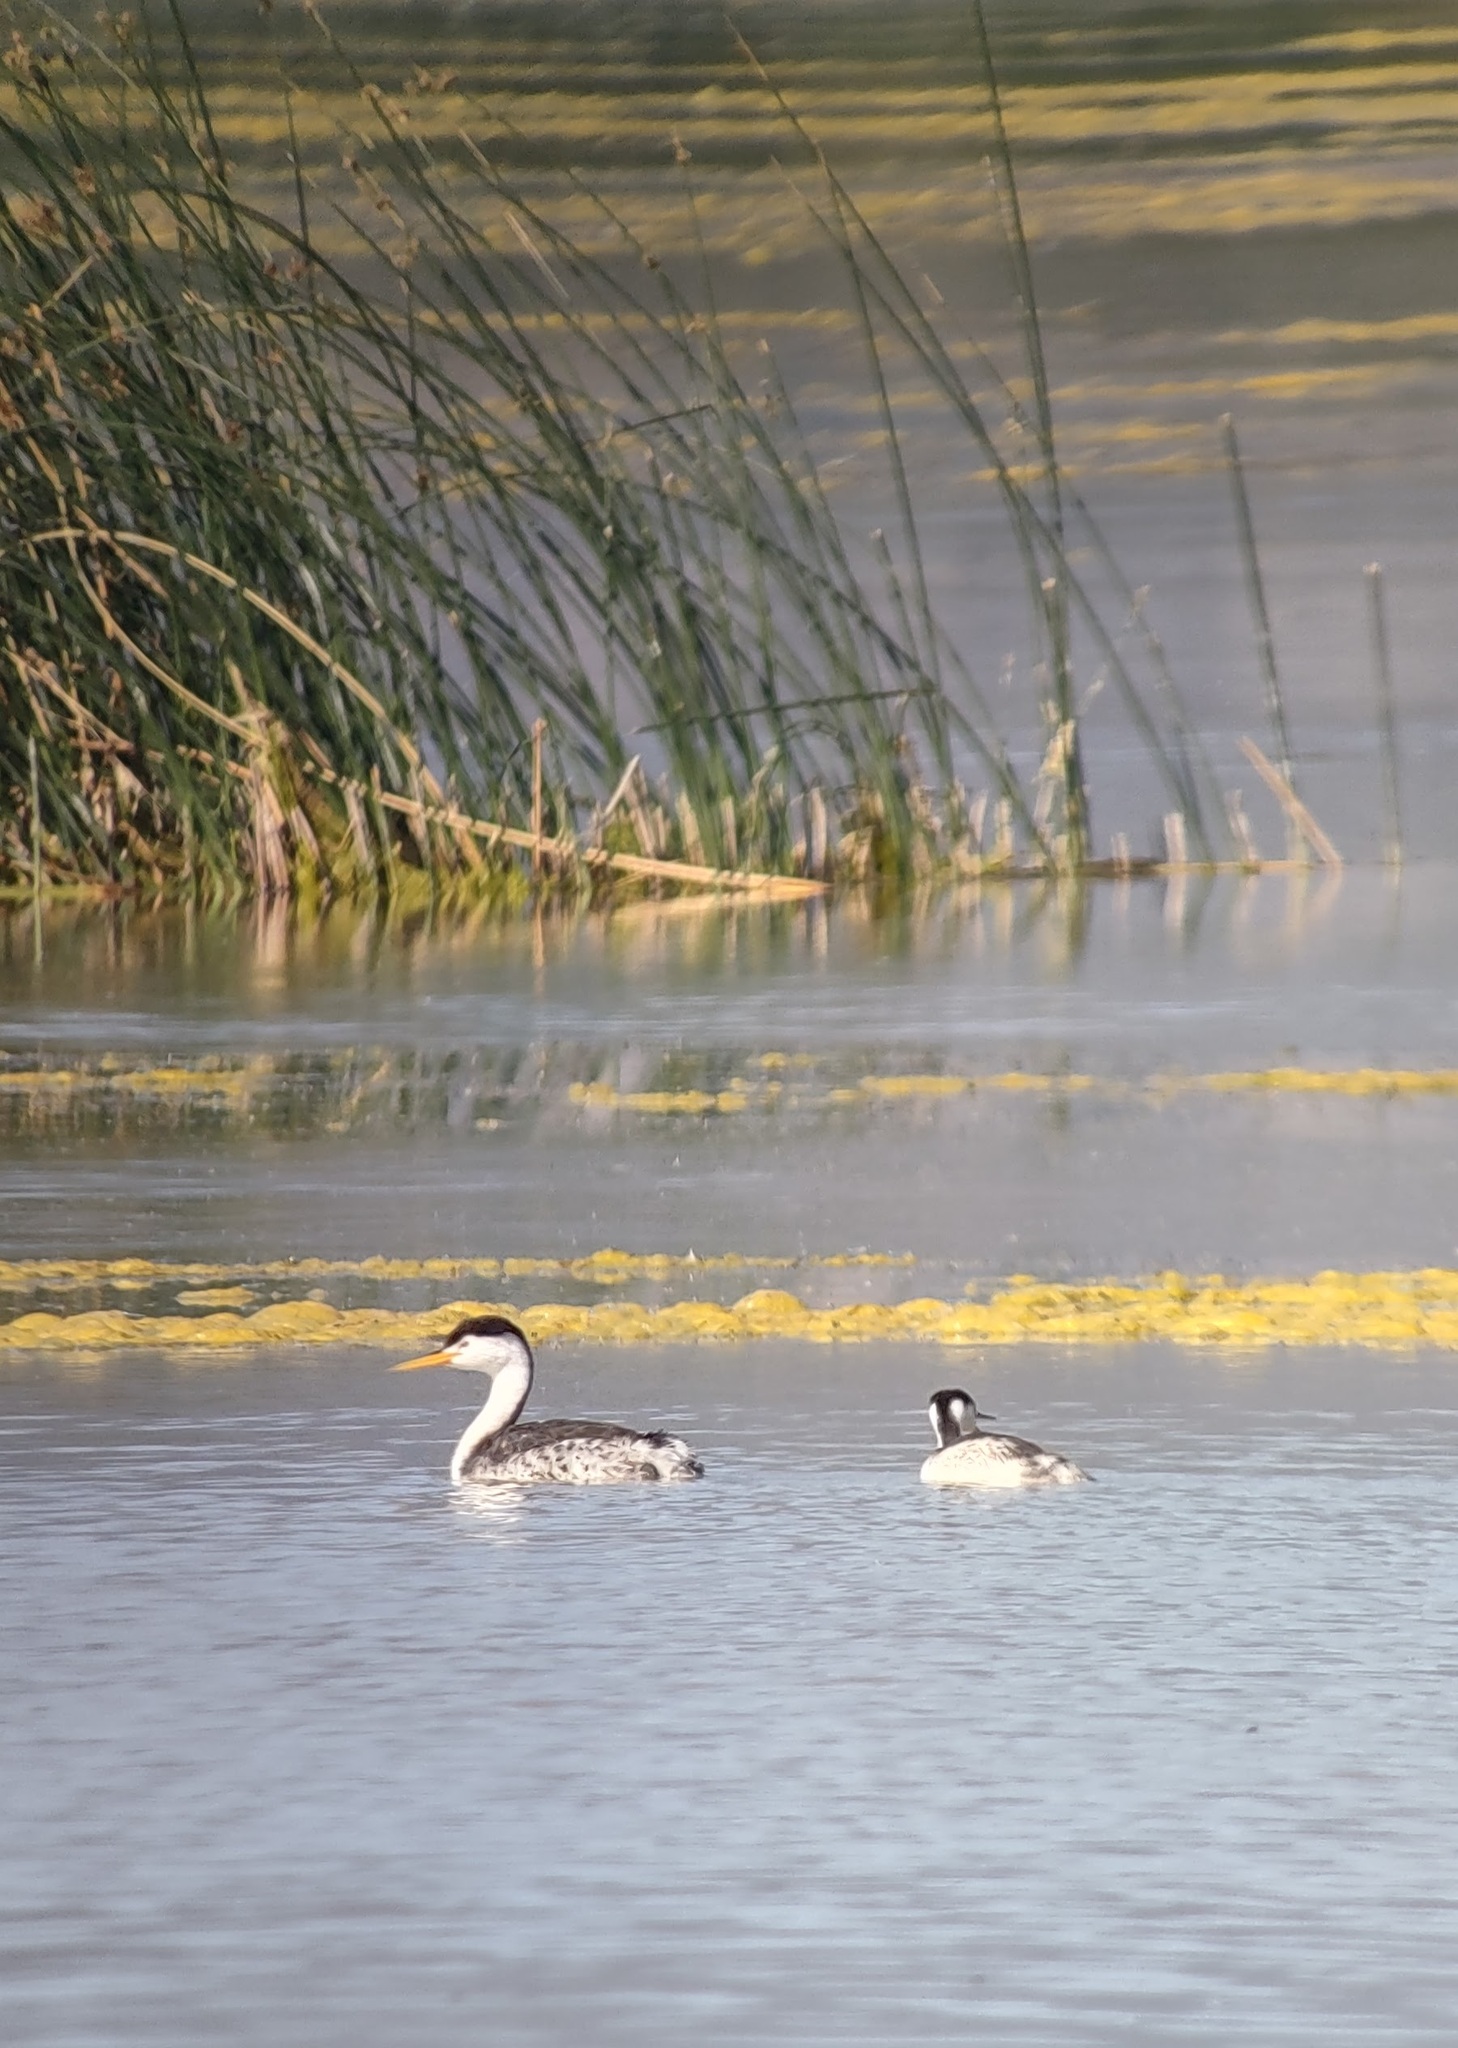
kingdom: Animalia
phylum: Chordata
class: Aves
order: Podicipediformes
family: Podicipedidae
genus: Aechmophorus
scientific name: Aechmophorus clarkii
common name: Clark's grebe
